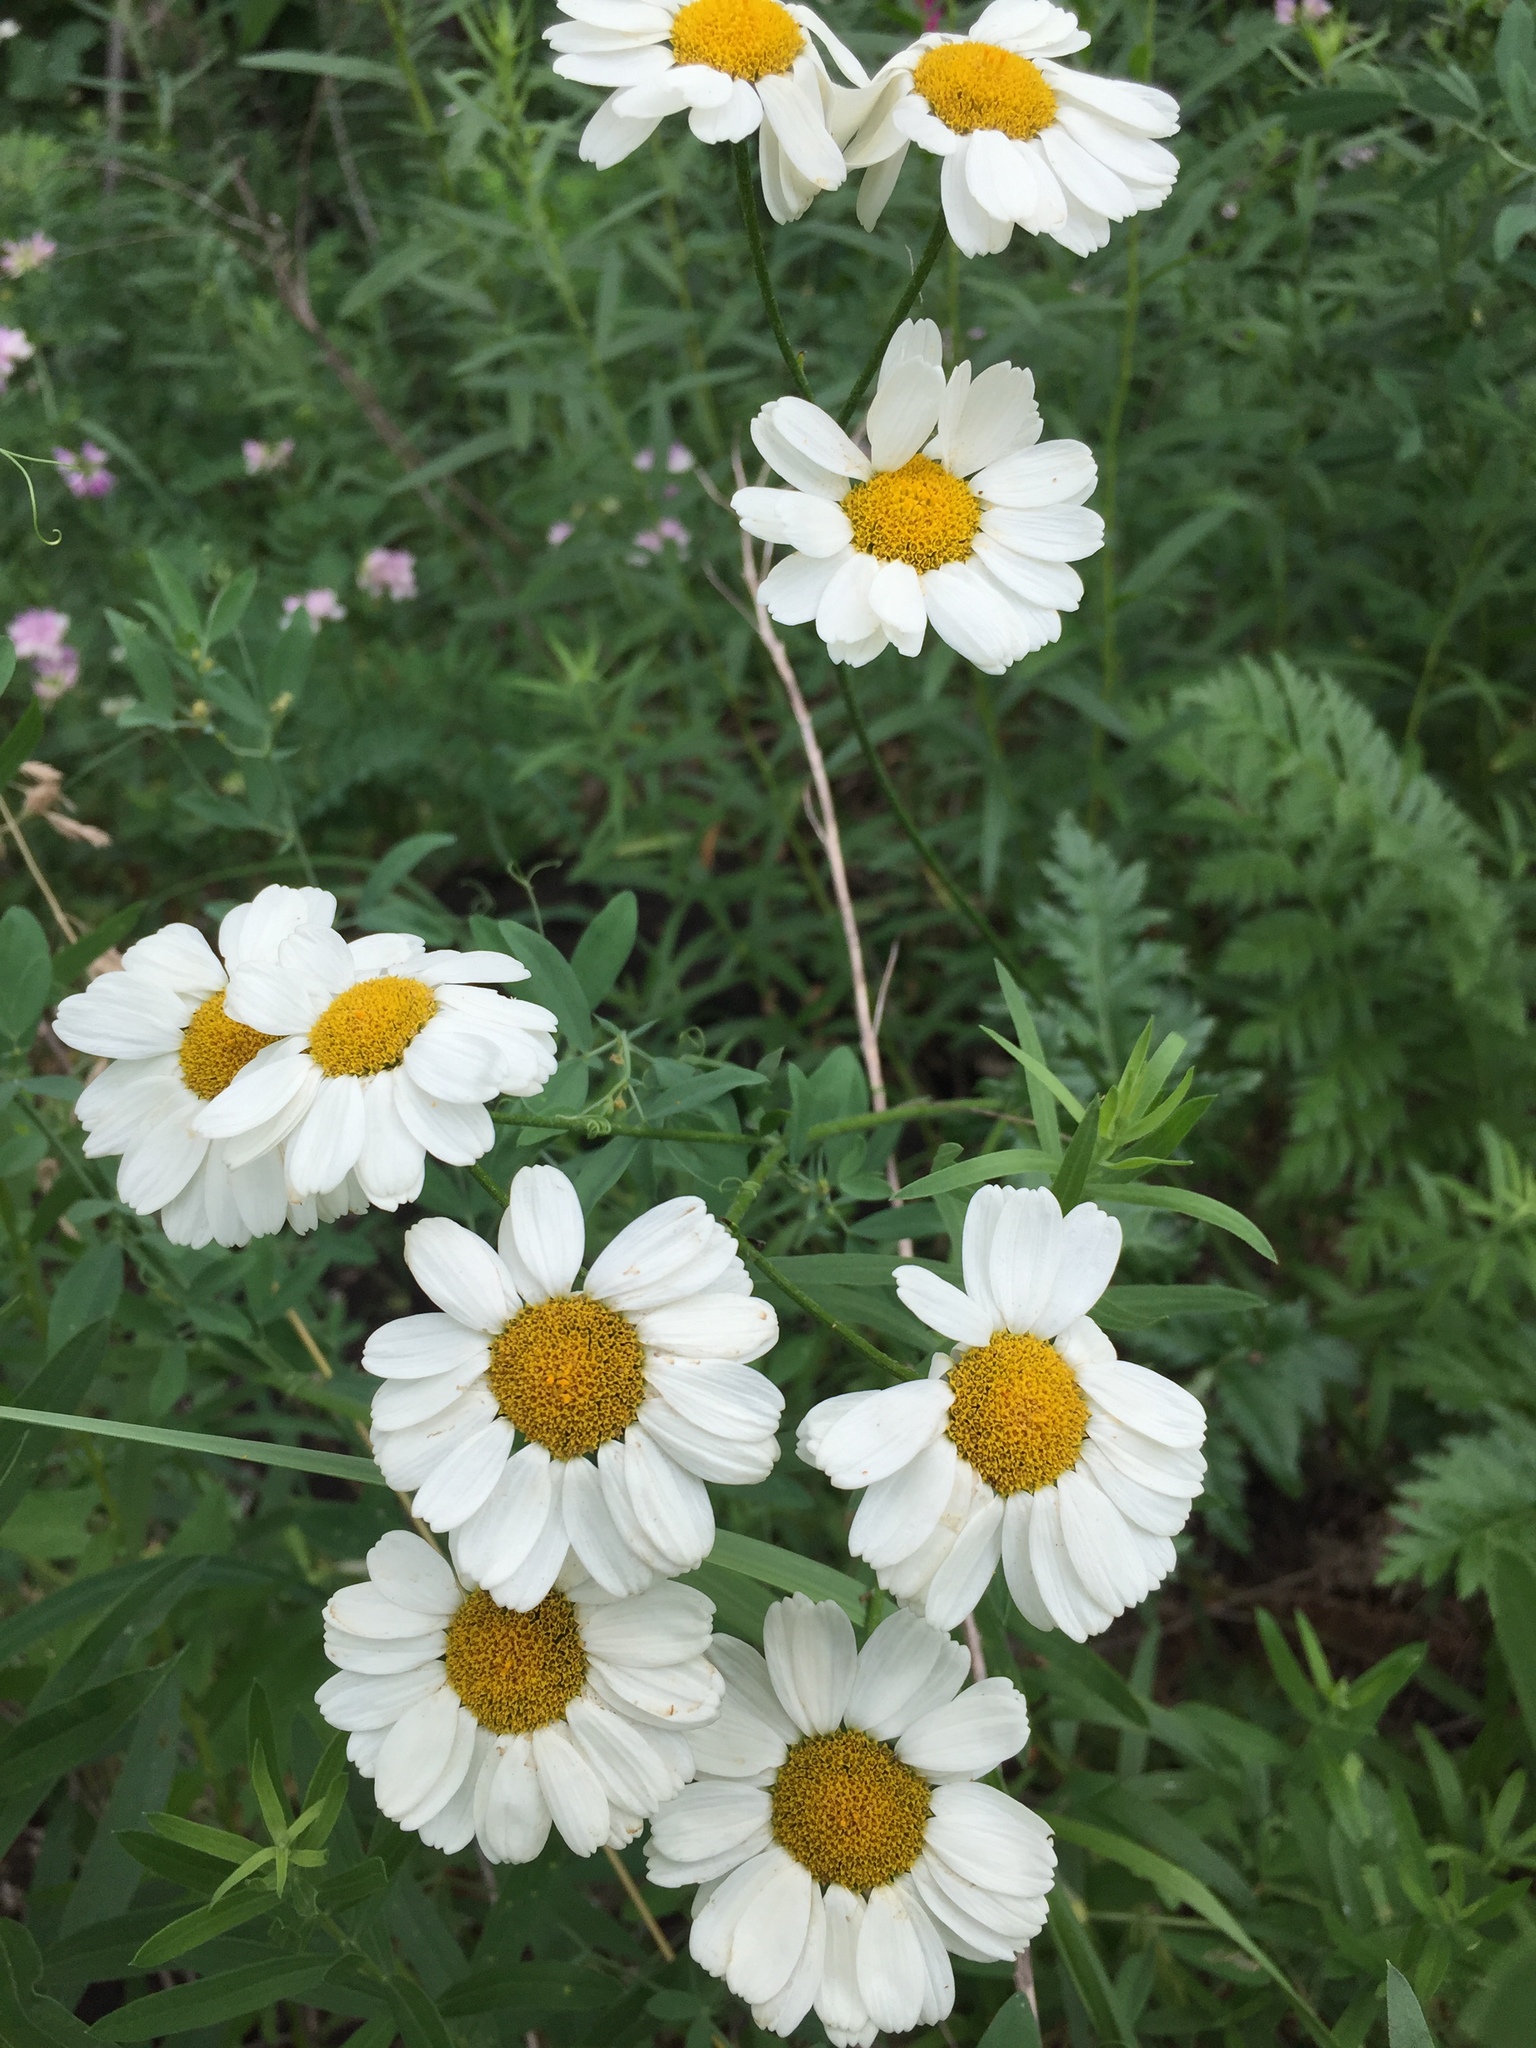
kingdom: Plantae
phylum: Tracheophyta
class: Magnoliopsida
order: Asterales
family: Asteraceae
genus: Tanacetum
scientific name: Tanacetum corymbosum
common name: Scentless feverfew
